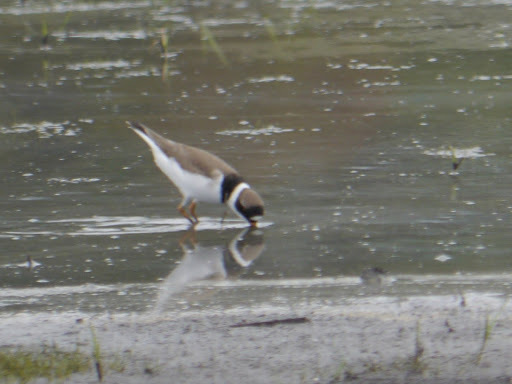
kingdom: Animalia
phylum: Chordata
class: Aves
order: Charadriiformes
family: Charadriidae
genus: Charadrius
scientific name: Charadrius semipalmatus
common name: Semipalmated plover
